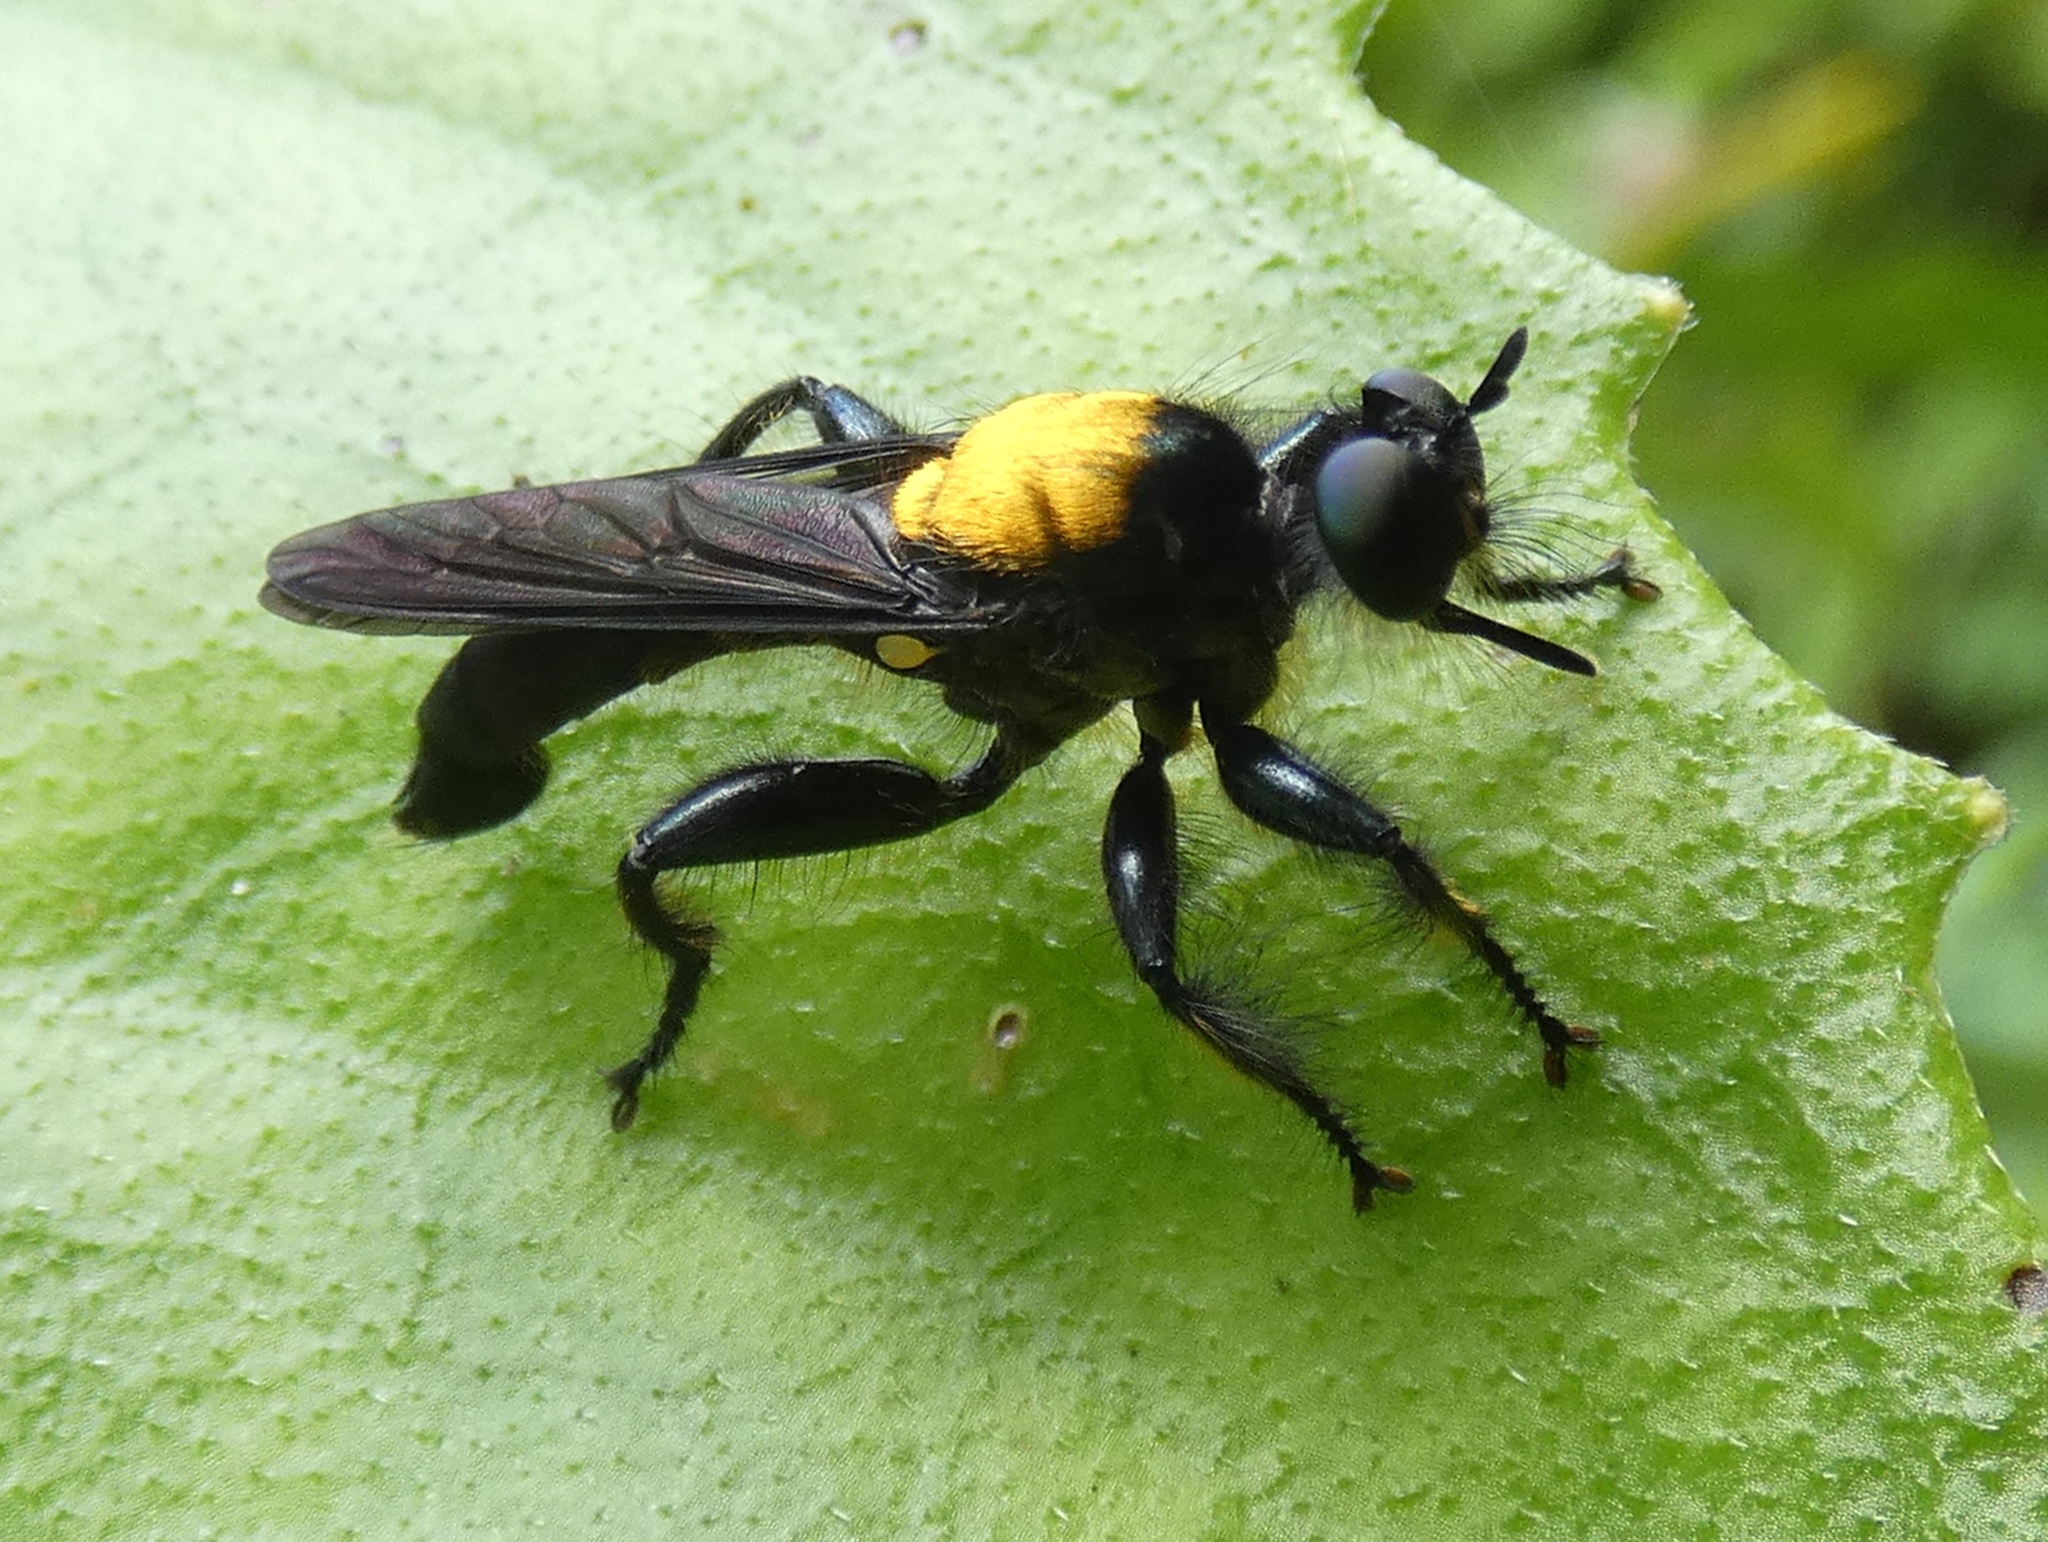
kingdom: Animalia
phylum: Arthropoda
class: Insecta
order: Diptera
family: Asilidae
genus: Lampria
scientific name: Lampria aurifex
